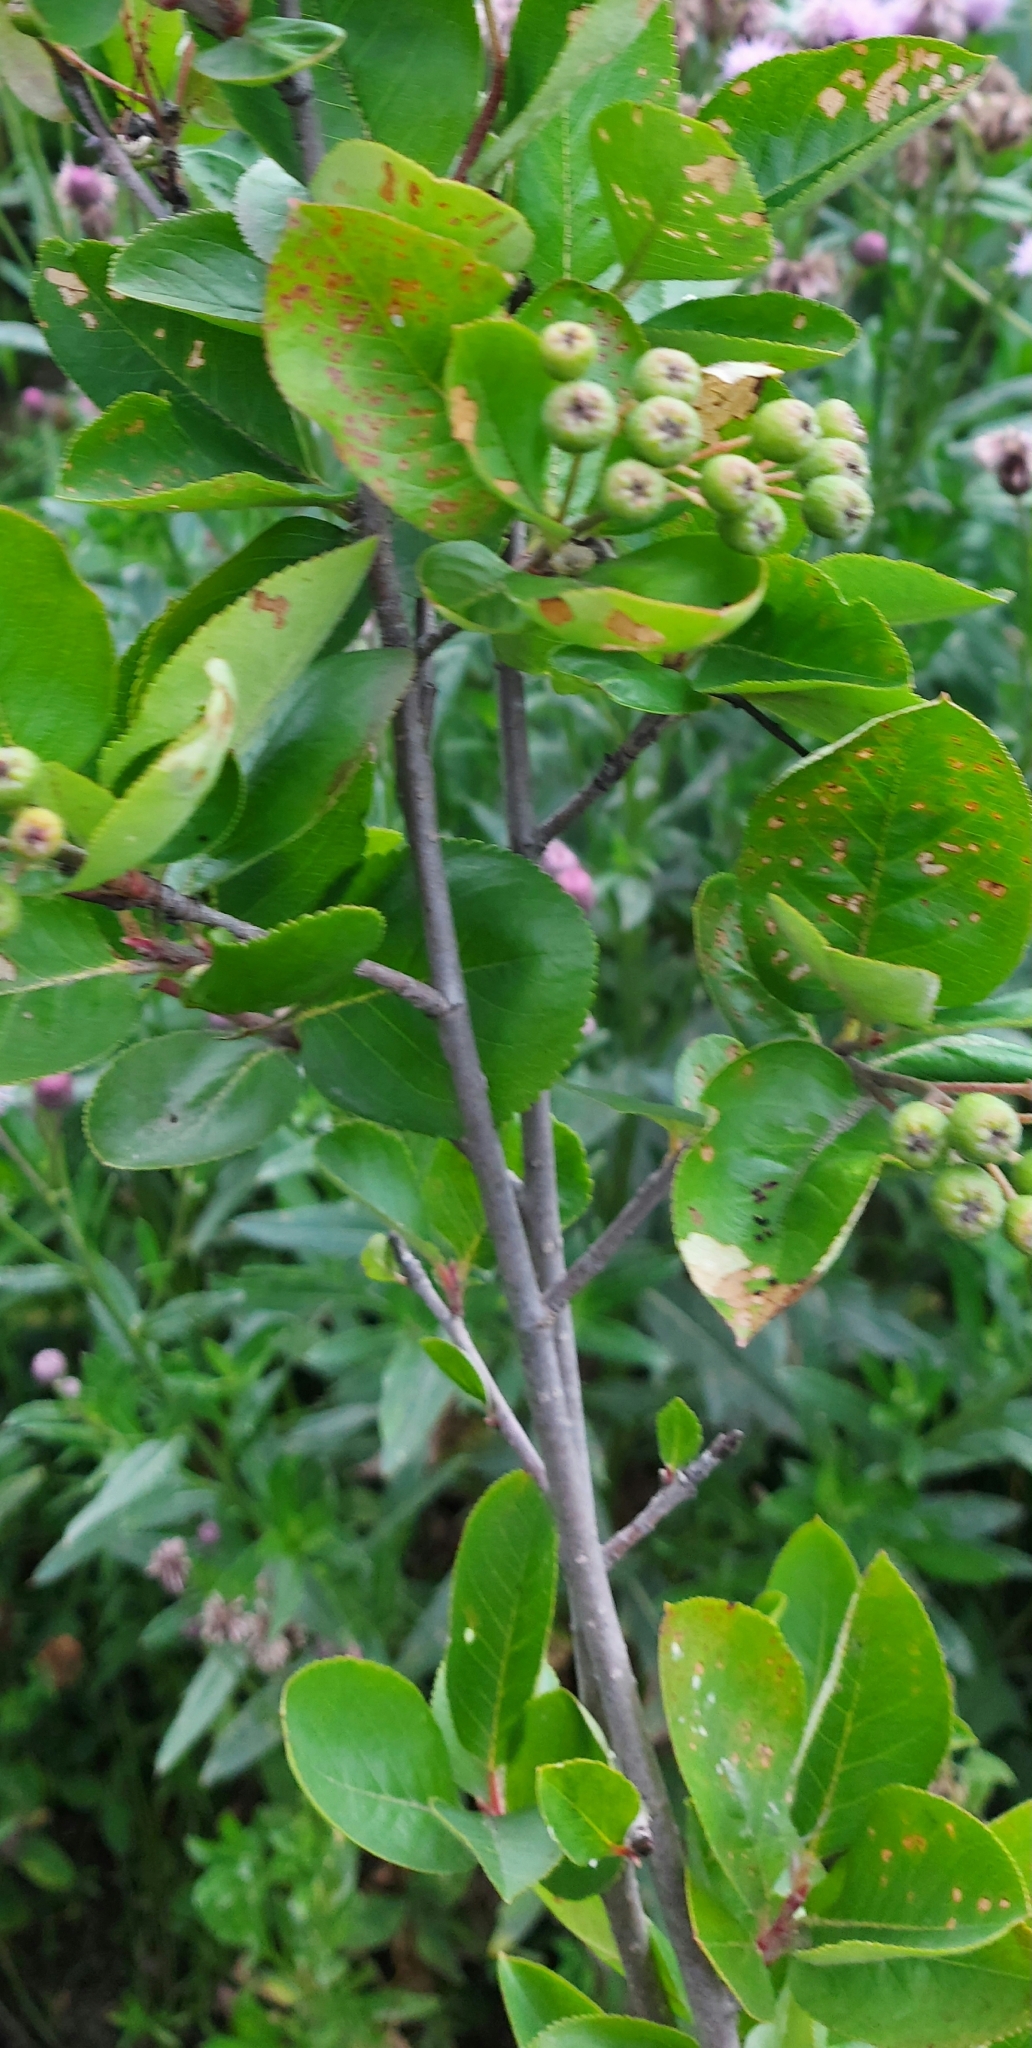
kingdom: Plantae
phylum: Tracheophyta
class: Magnoliopsida
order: Rosales
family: Rosaceae
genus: Sorbaronia
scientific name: Sorbaronia arsenii
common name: Arsène's mountain-ash
